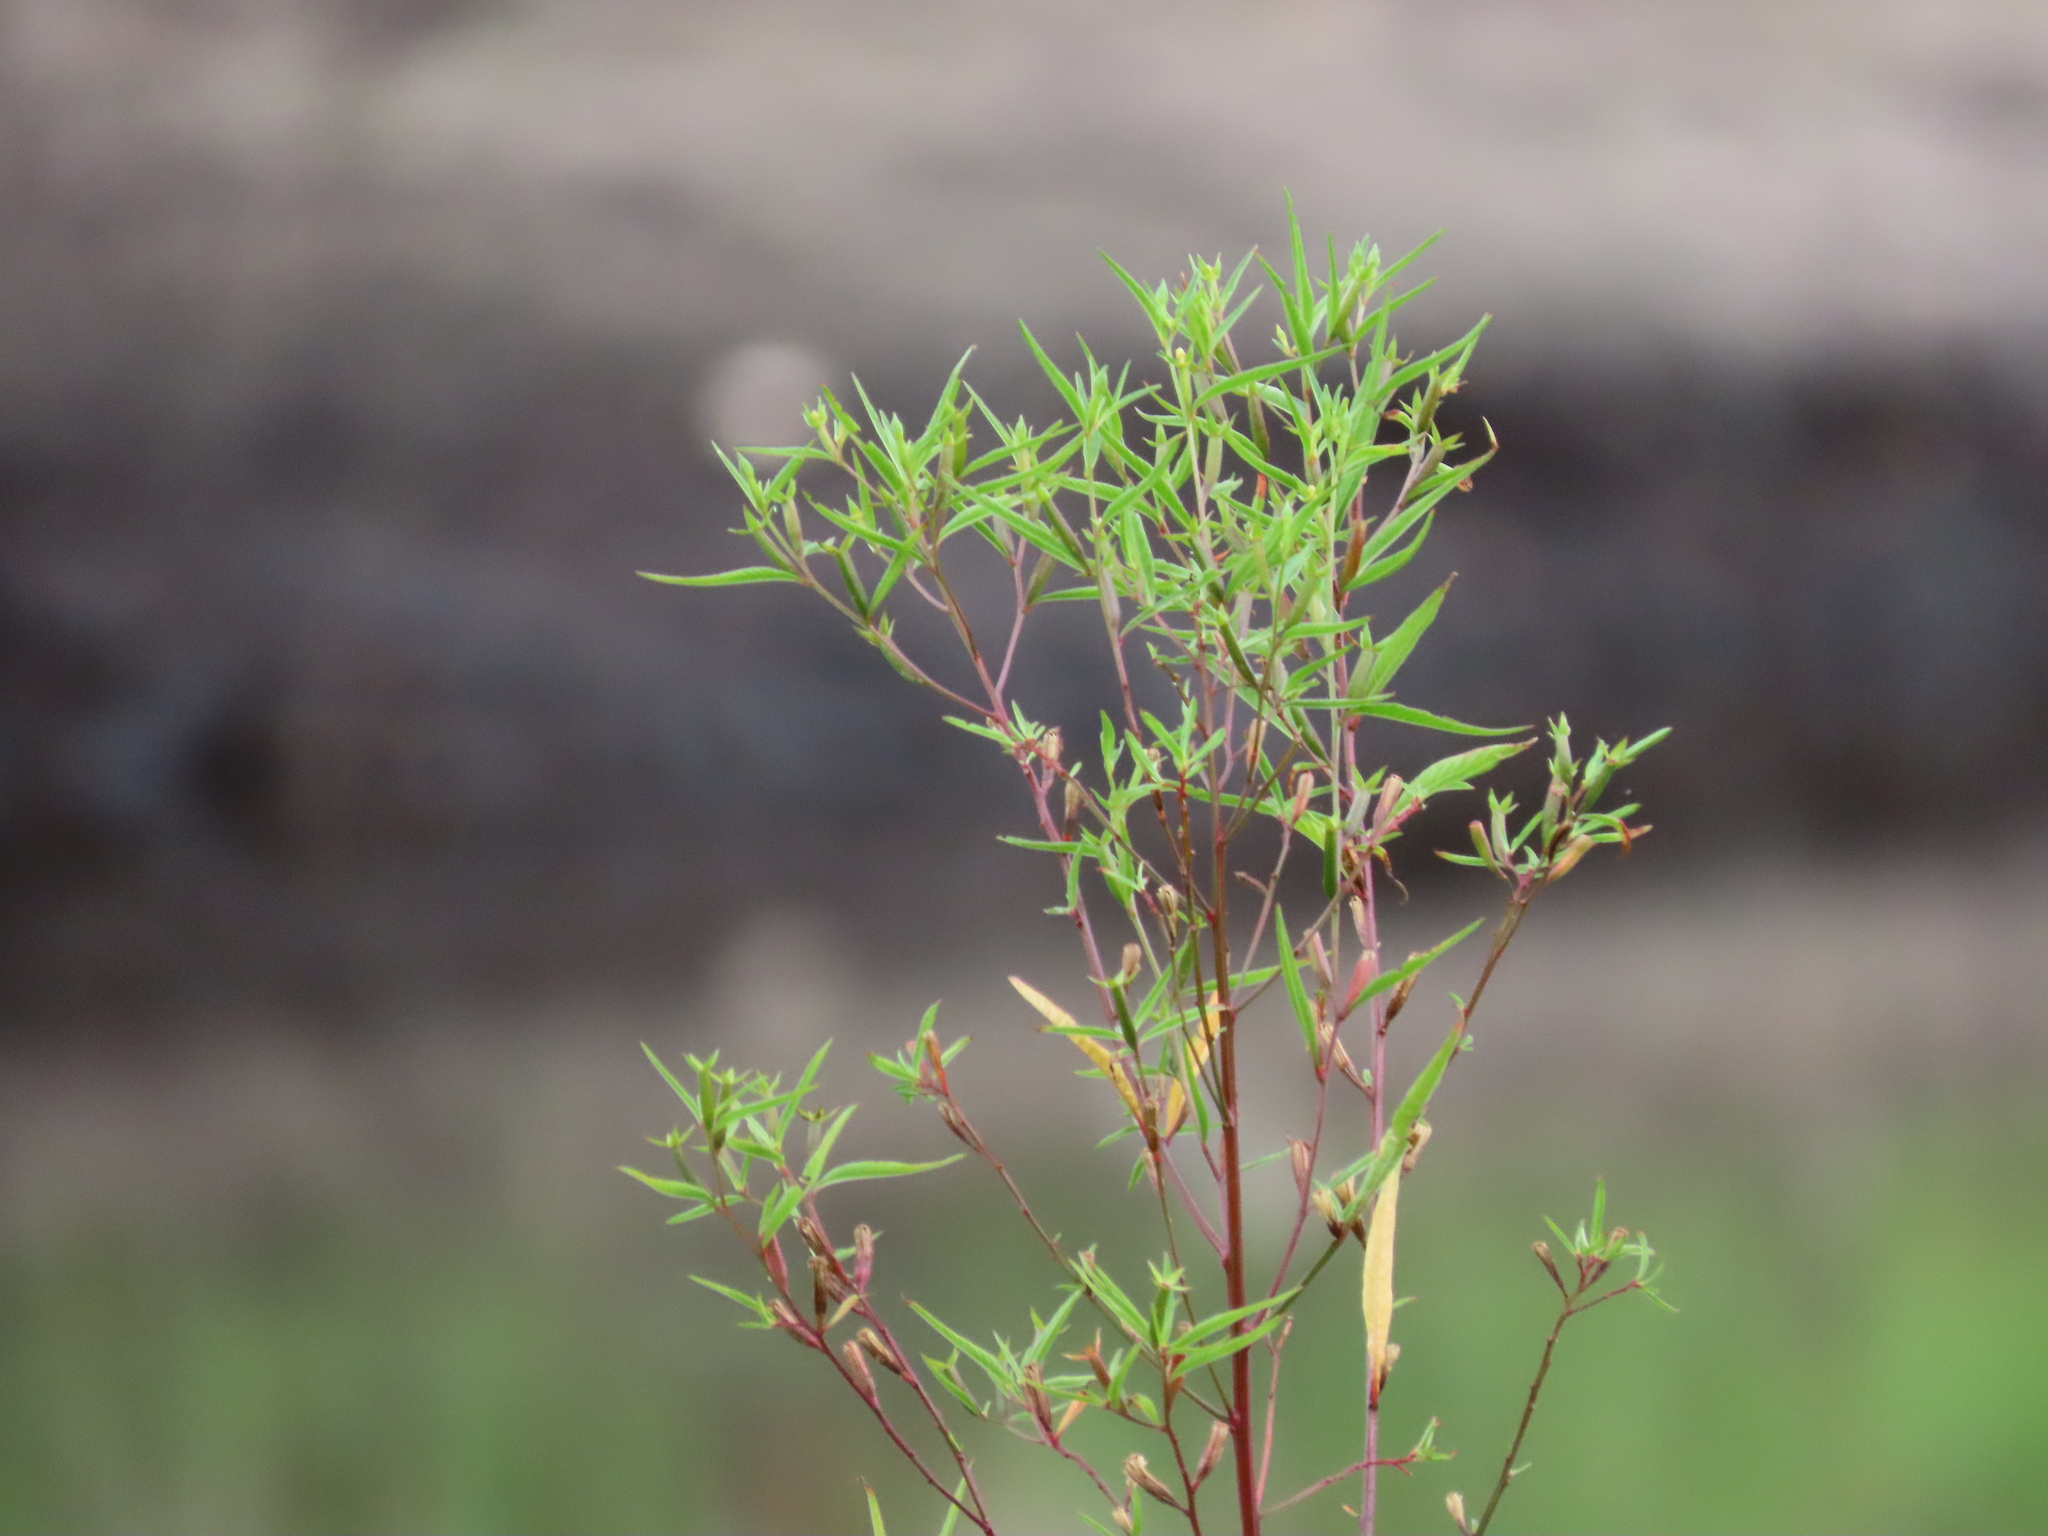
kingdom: Plantae
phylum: Tracheophyta
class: Magnoliopsida
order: Myrtales
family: Onagraceae
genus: Ludwigia
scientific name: Ludwigia erecta
